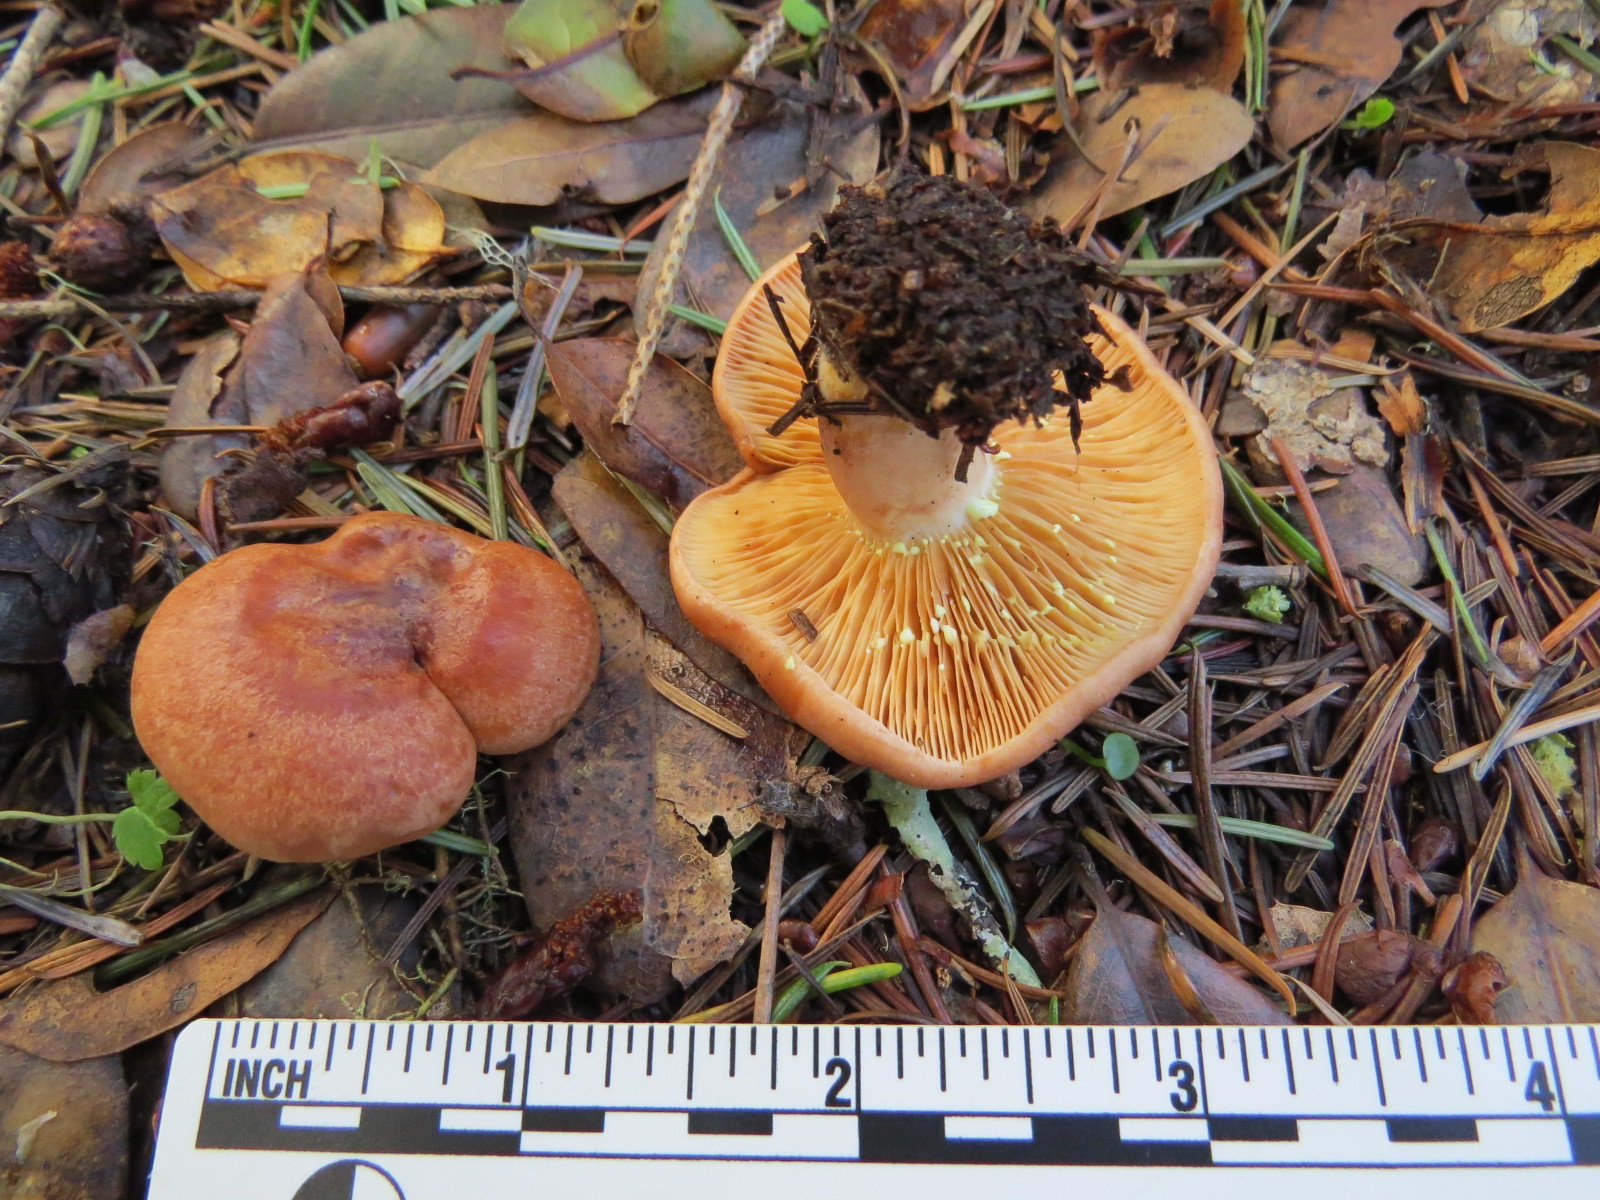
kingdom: Fungi
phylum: Basidiomycota
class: Agaricomycetes
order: Russulales
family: Russulaceae
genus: Lactarius
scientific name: Lactarius xanthogalactus
